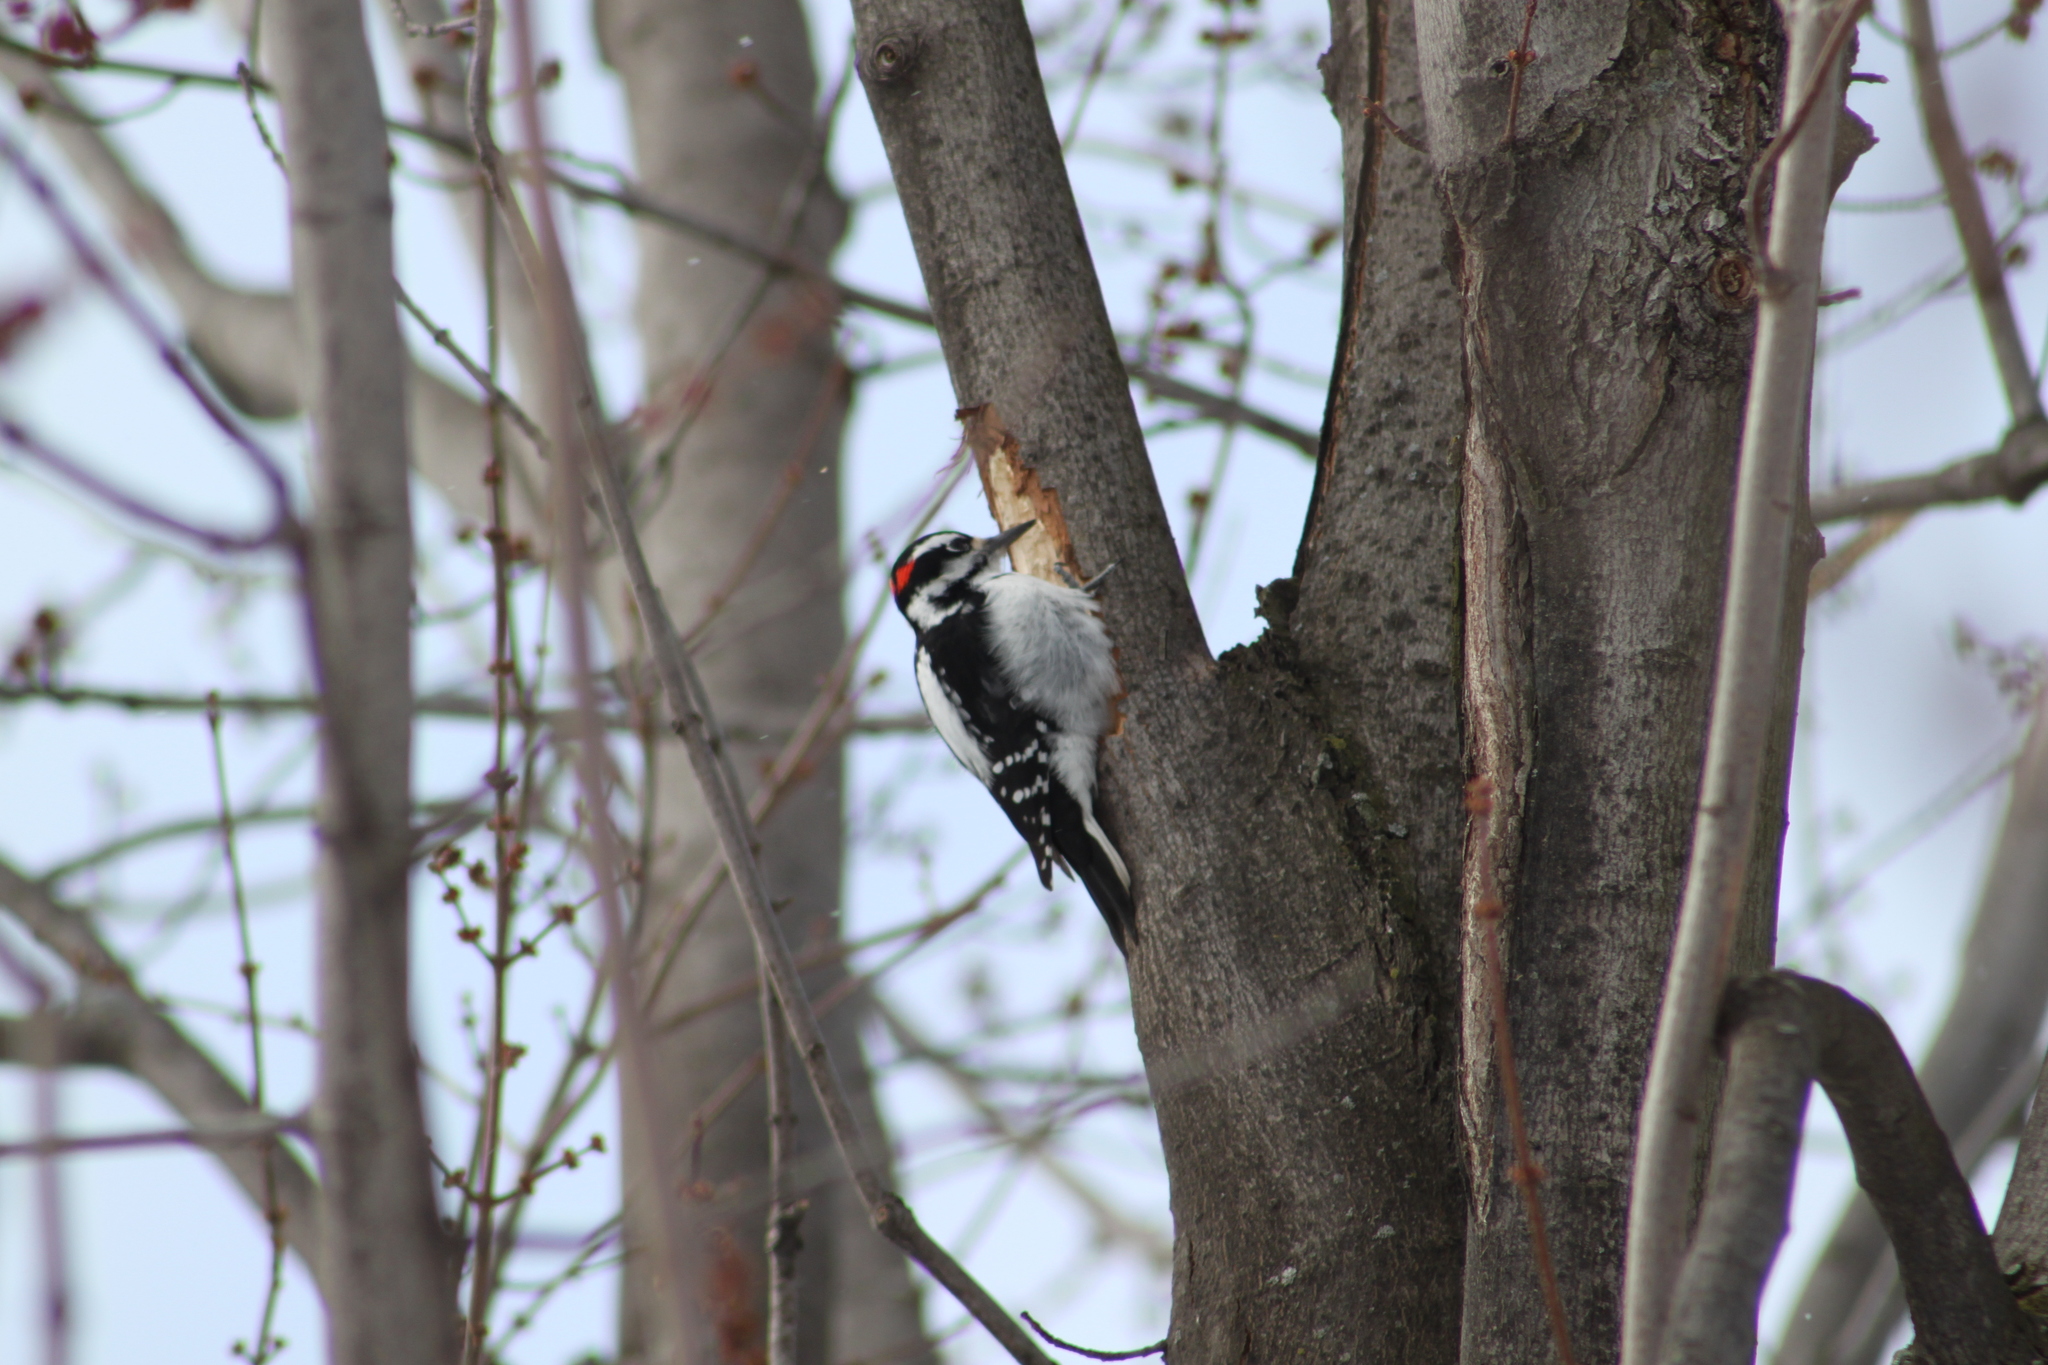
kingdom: Animalia
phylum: Chordata
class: Aves
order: Piciformes
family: Picidae
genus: Leuconotopicus
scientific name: Leuconotopicus villosus
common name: Hairy woodpecker
